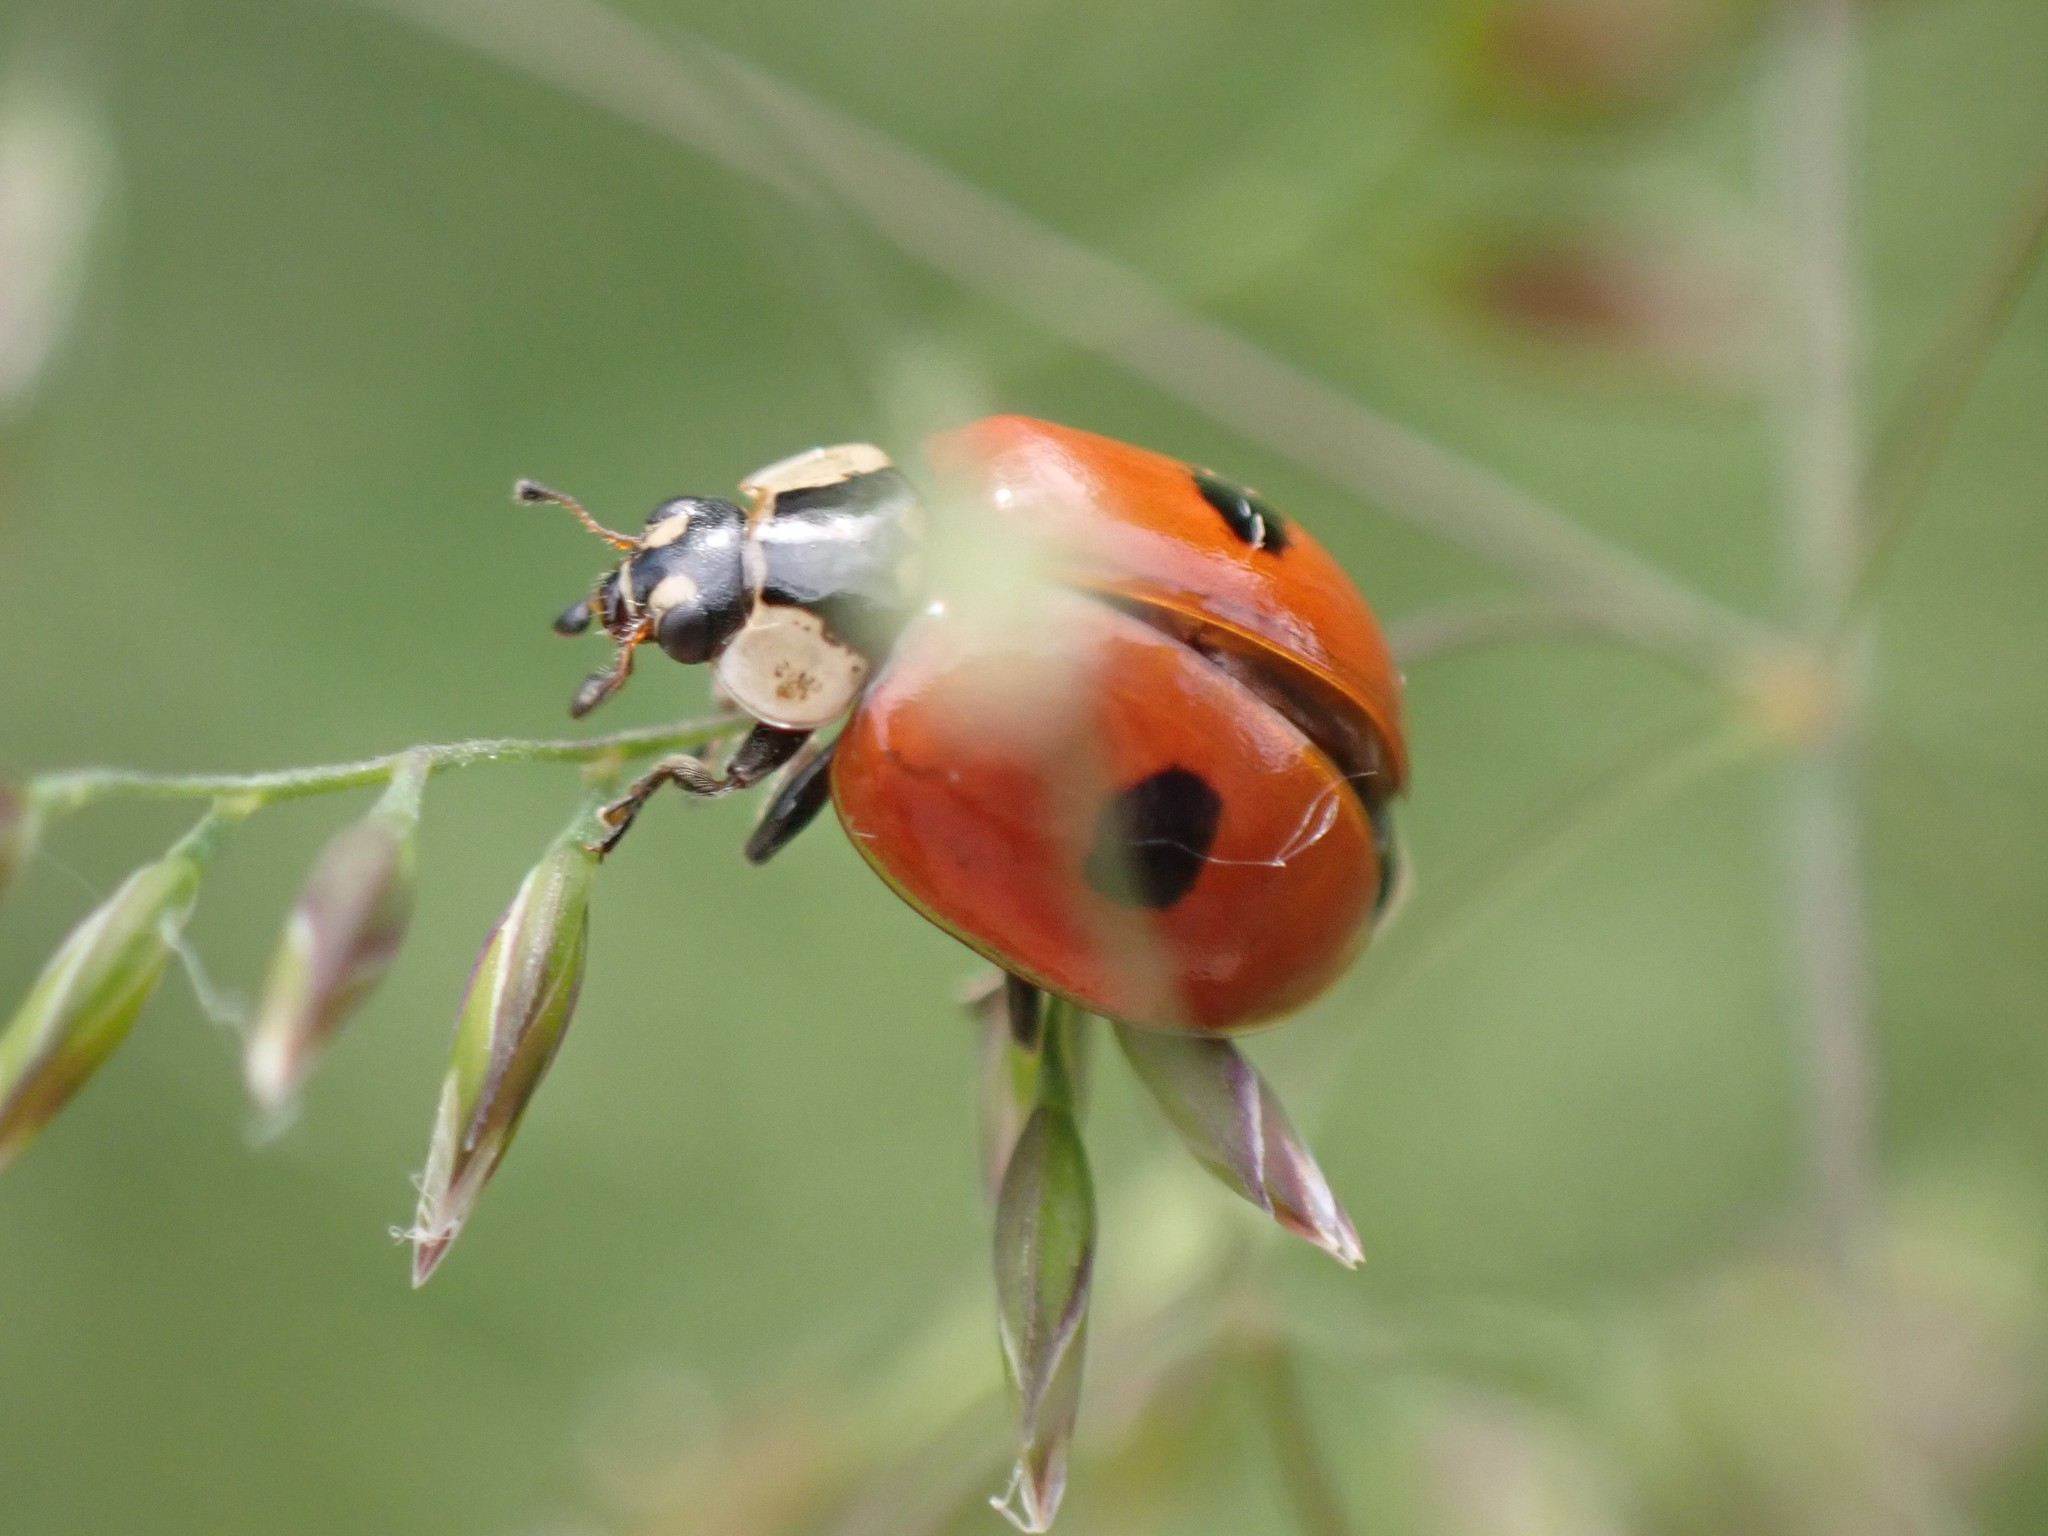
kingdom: Animalia
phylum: Arthropoda
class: Insecta
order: Coleoptera
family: Coccinellidae
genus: Adalia
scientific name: Adalia bipunctata
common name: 2-spot ladybird
